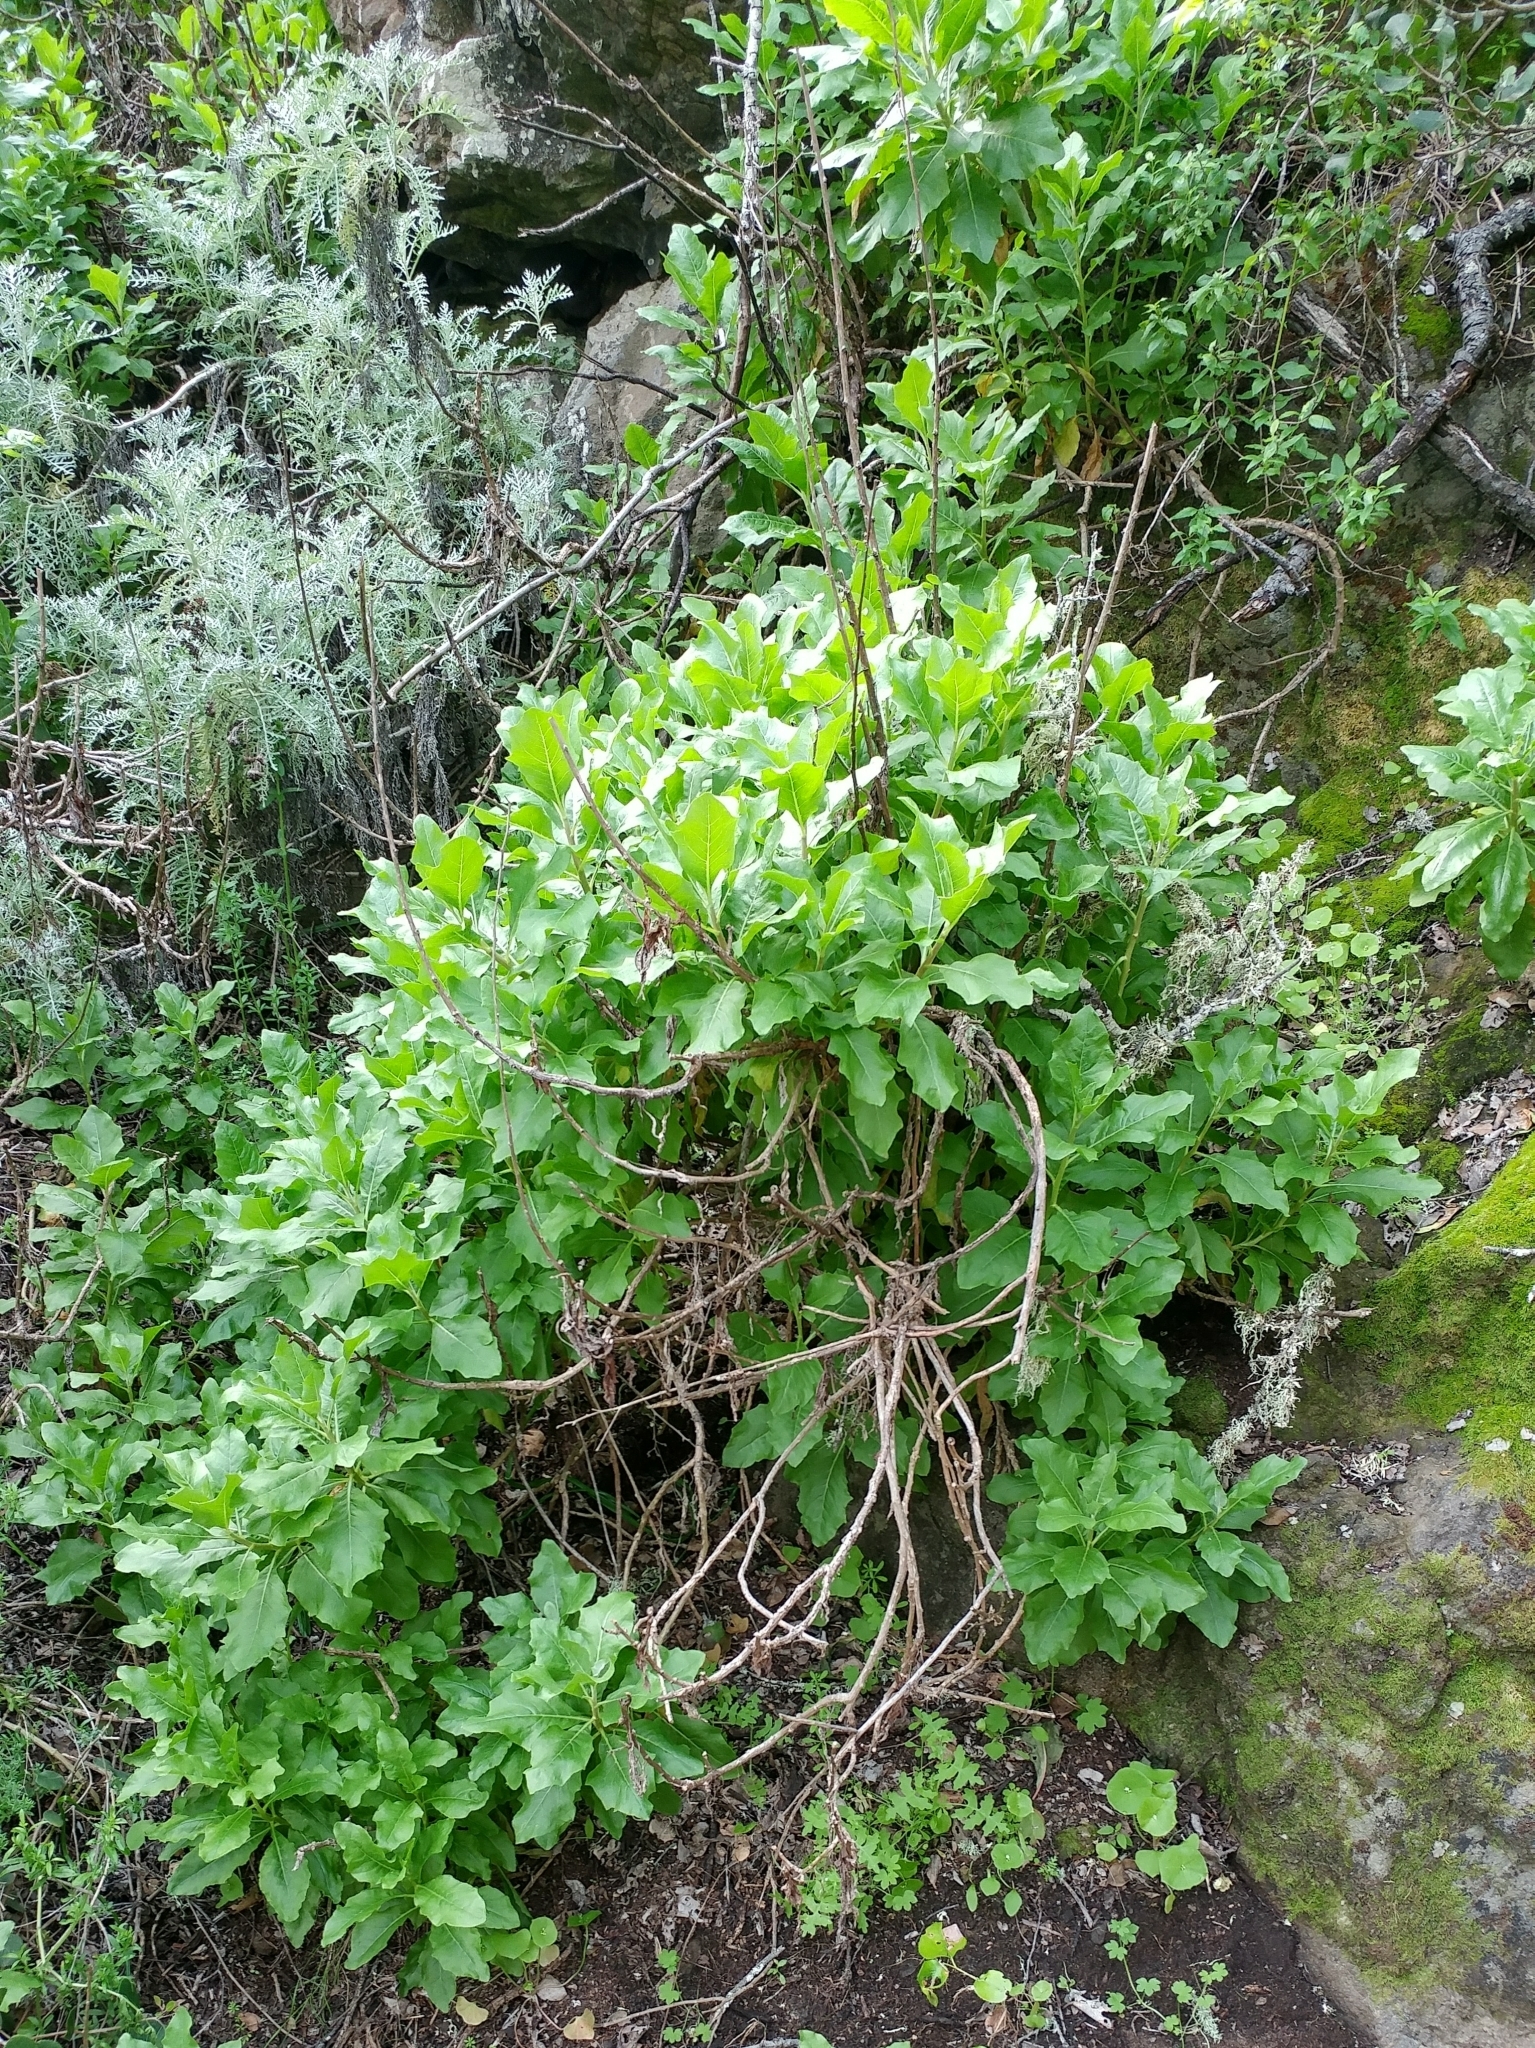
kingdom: Plantae
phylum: Tracheophyta
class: Magnoliopsida
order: Asterales
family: Asteraceae
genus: Munzothamnus
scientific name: Munzothamnus blairii
